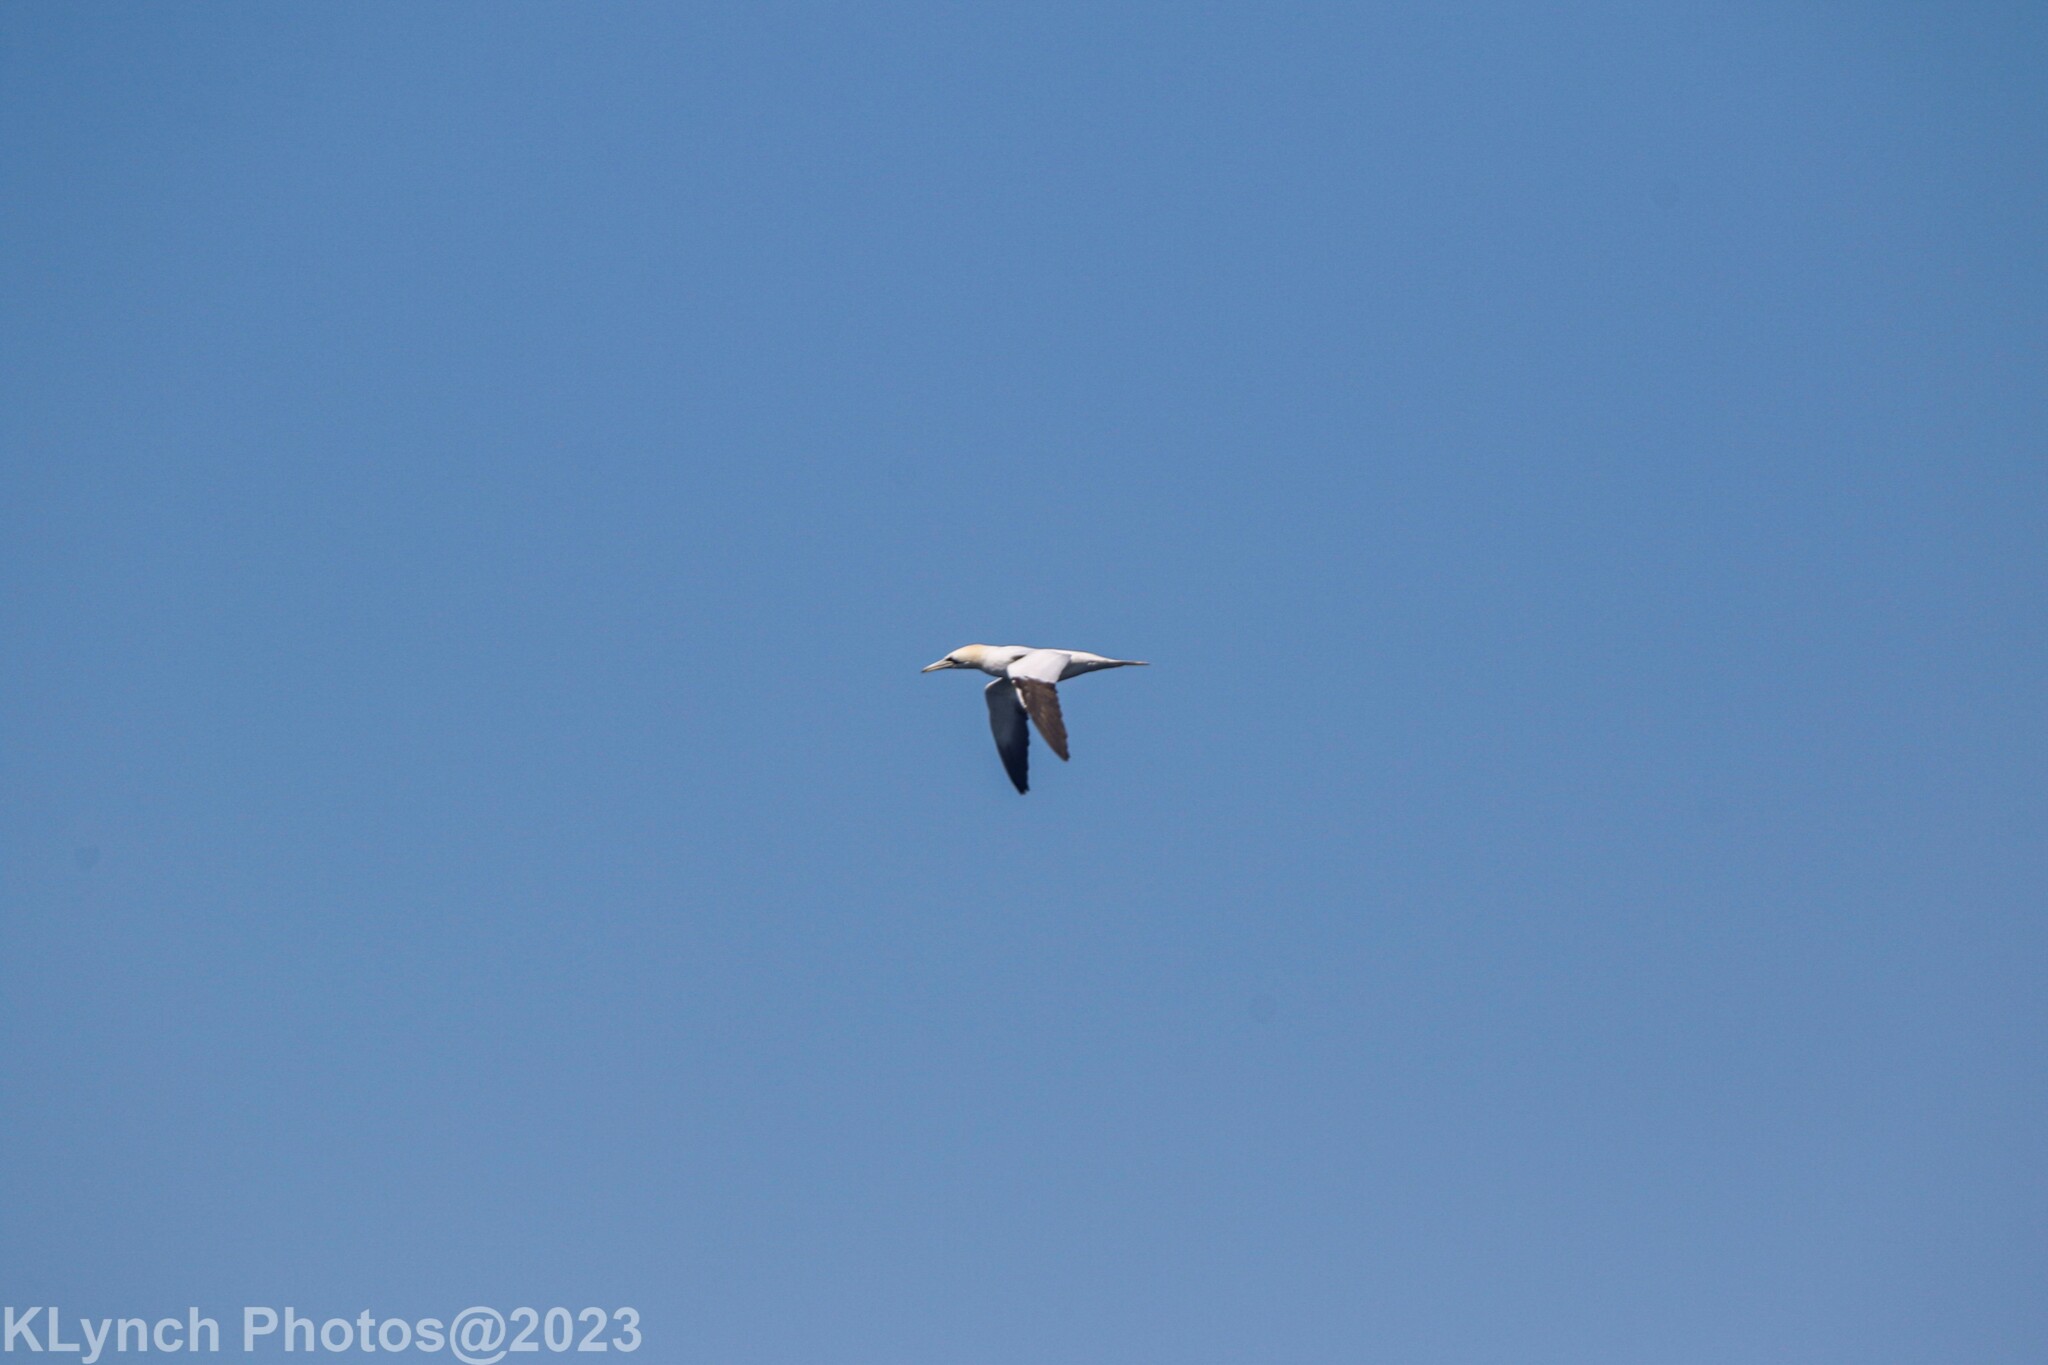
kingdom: Animalia
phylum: Chordata
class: Aves
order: Suliformes
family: Sulidae
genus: Morus
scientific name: Morus bassanus
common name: Northern gannet
